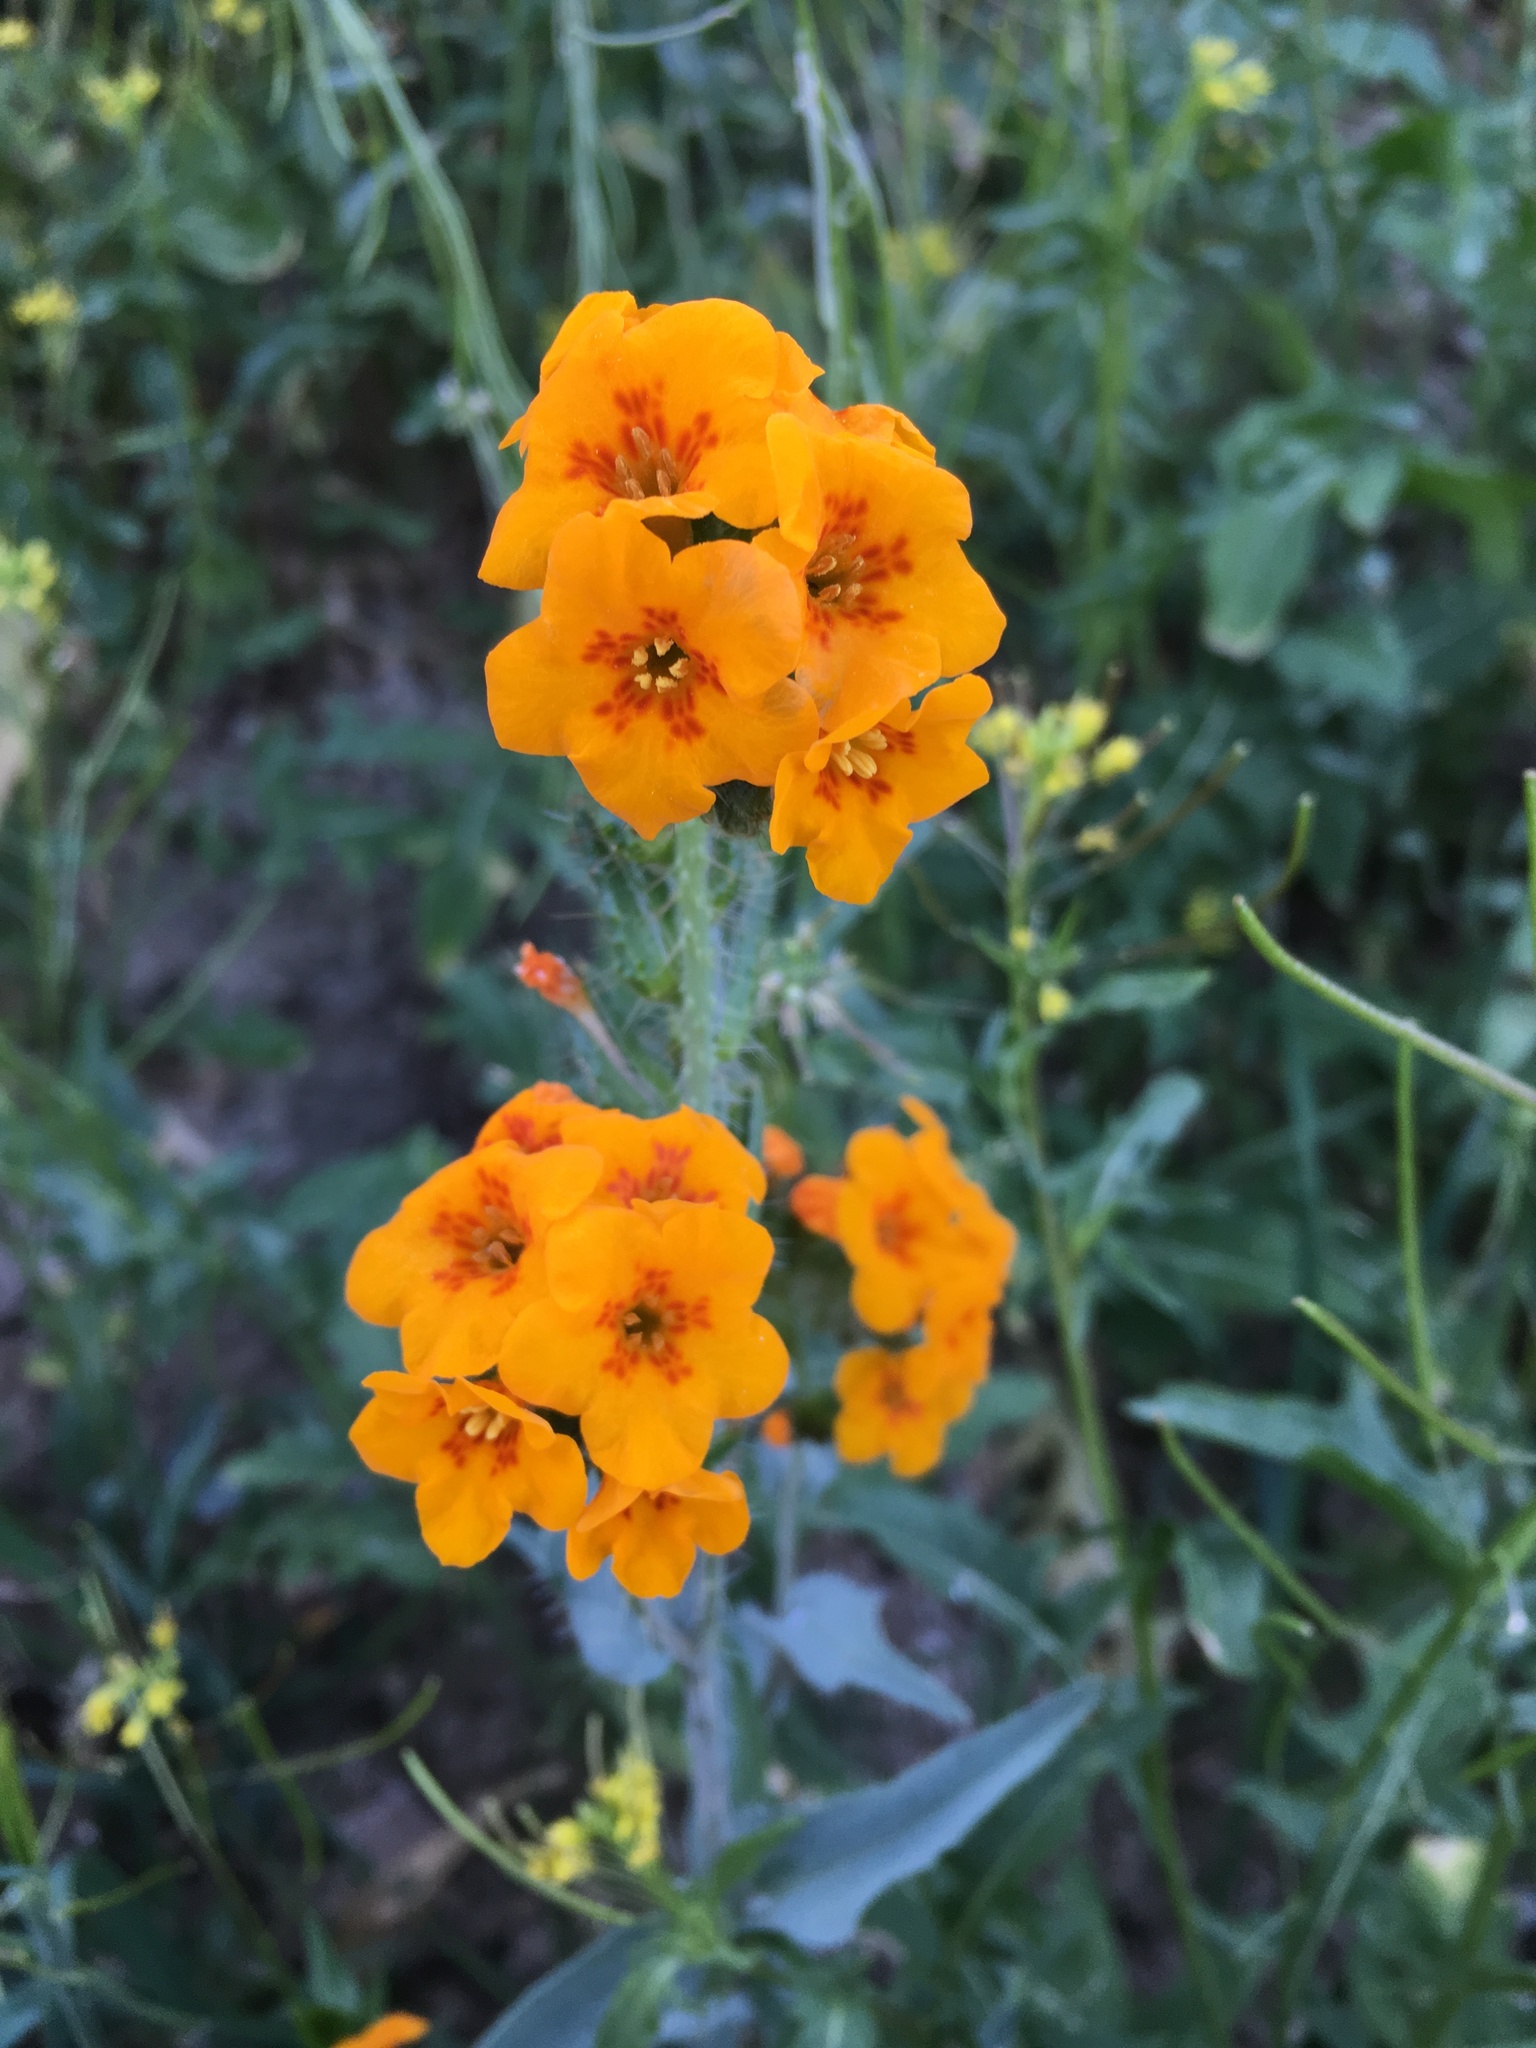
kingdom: Plantae
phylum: Tracheophyta
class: Magnoliopsida
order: Boraginales
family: Boraginaceae
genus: Amsinckia
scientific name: Amsinckia vernicosa
